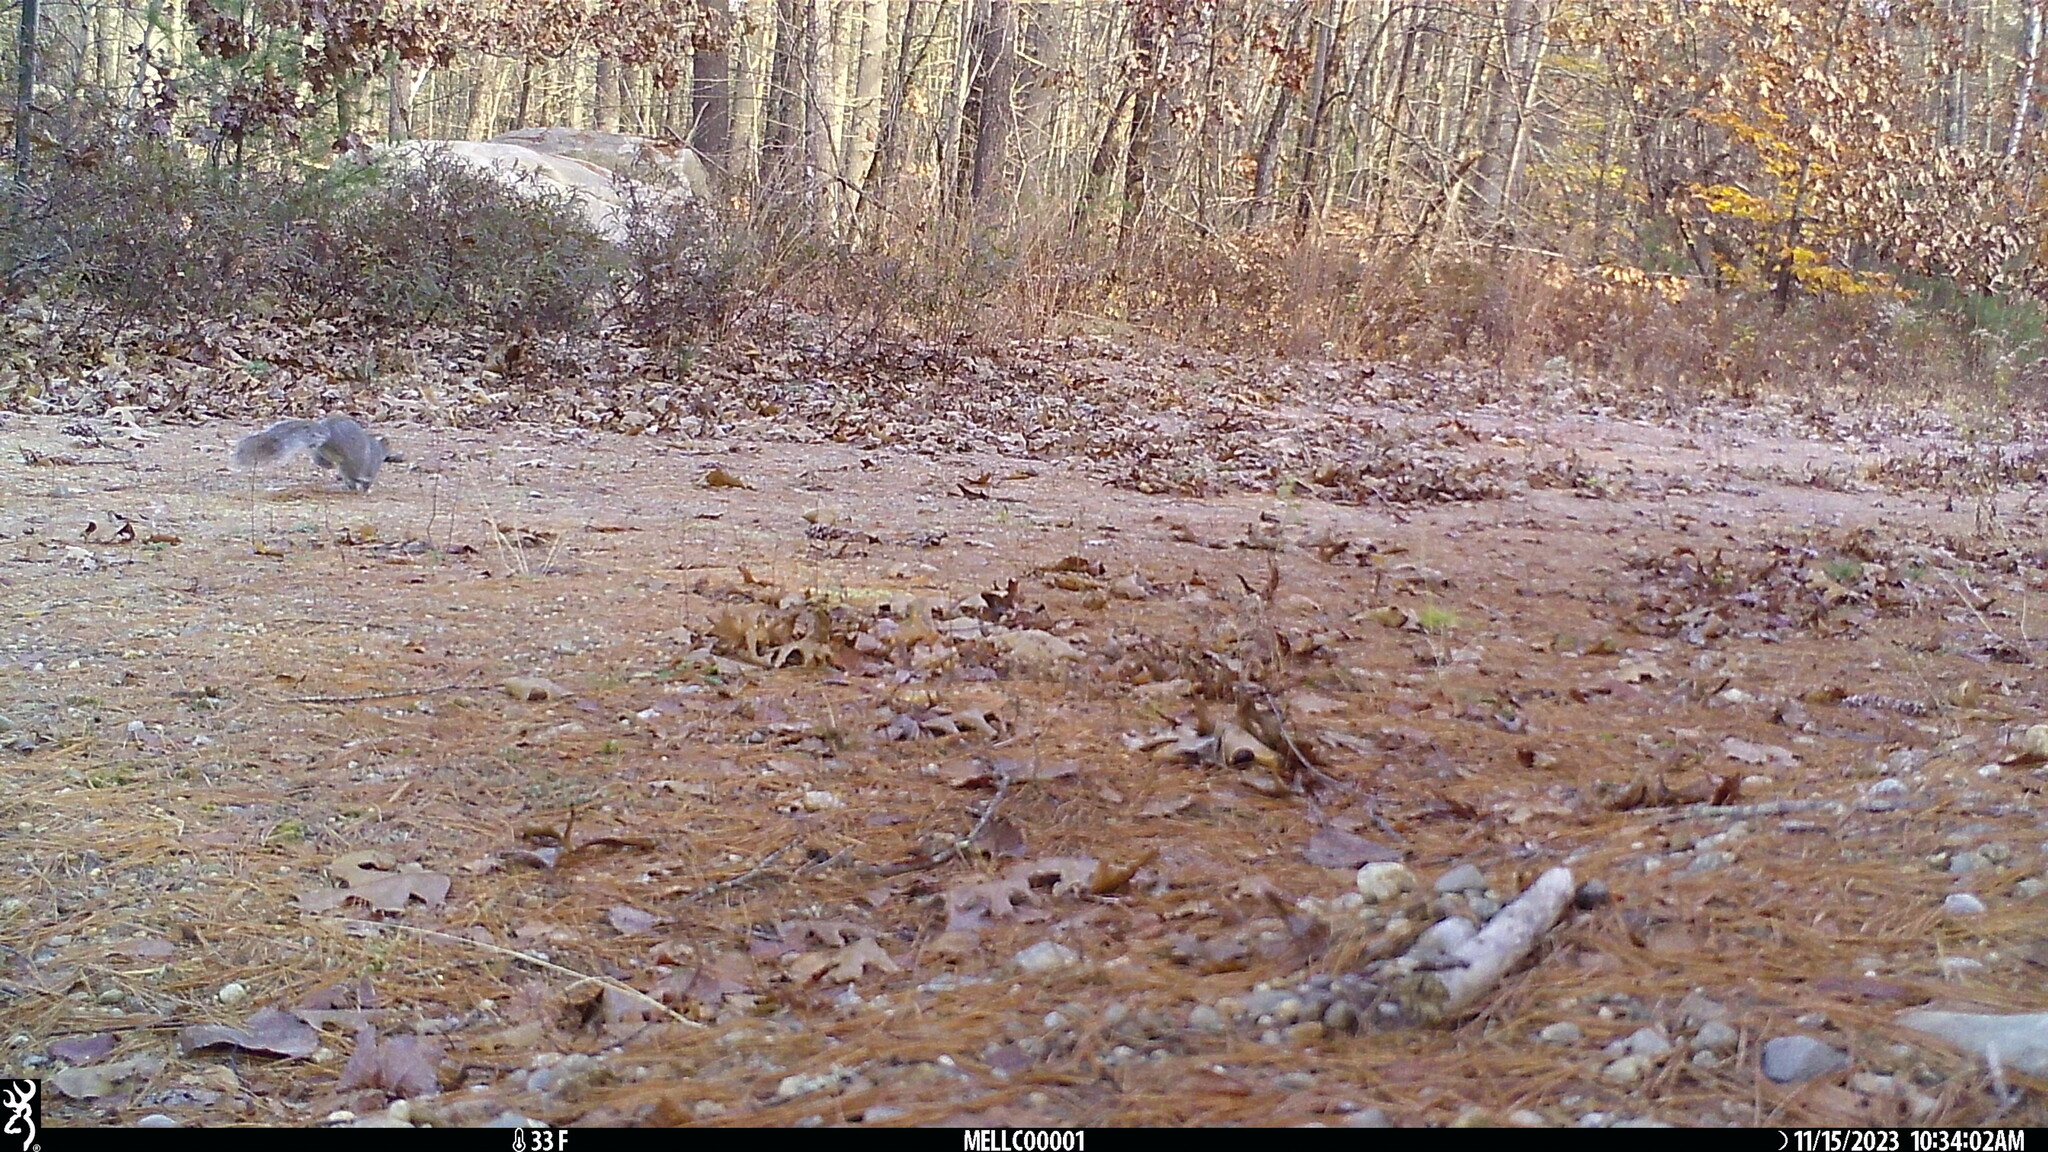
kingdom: Animalia
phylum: Chordata
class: Mammalia
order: Rodentia
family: Sciuridae
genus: Sciurus
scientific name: Sciurus carolinensis
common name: Eastern gray squirrel
